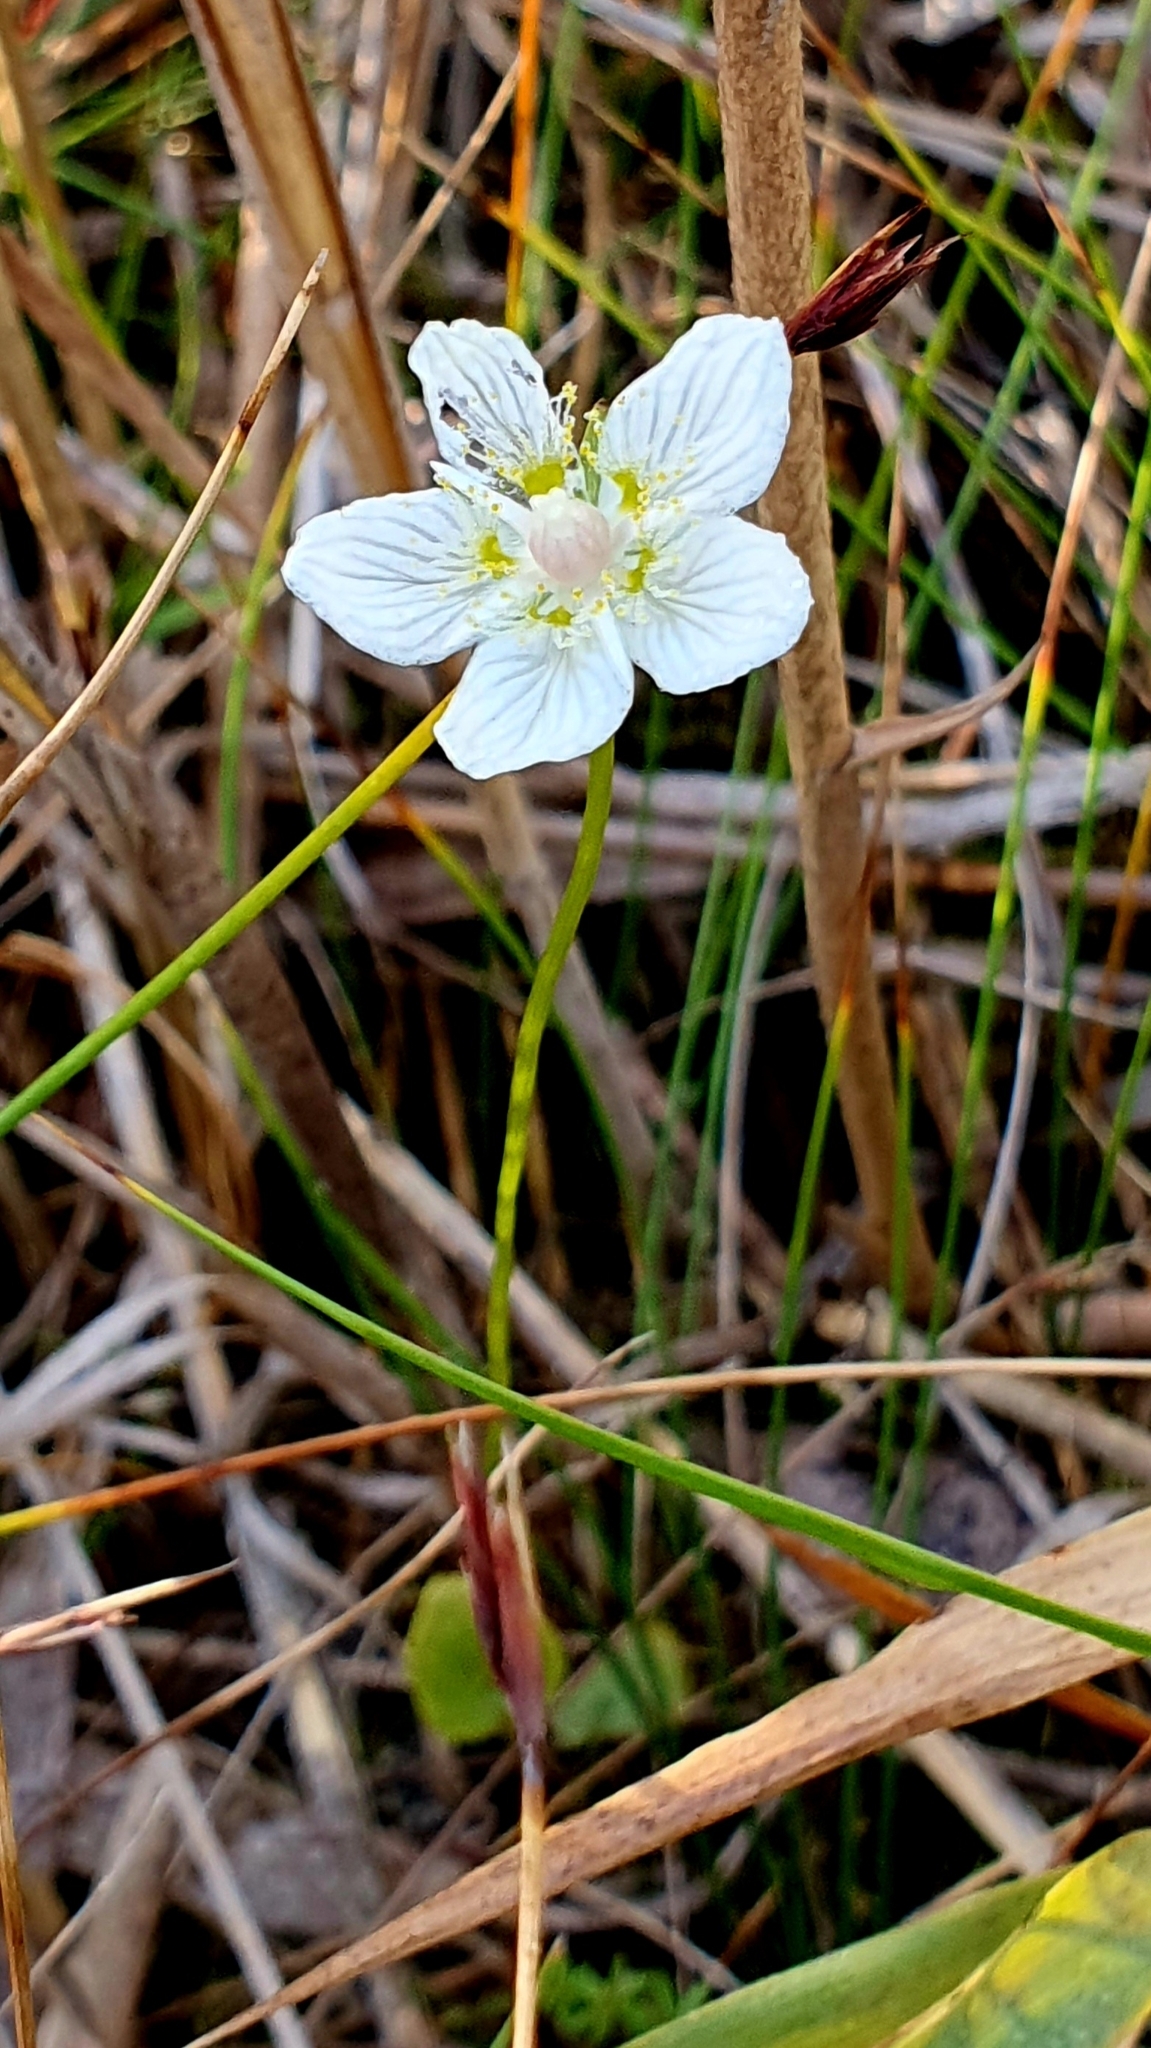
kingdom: Plantae
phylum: Tracheophyta
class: Magnoliopsida
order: Celastrales
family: Parnassiaceae
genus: Parnassia
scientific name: Parnassia palustris
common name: Grass-of-parnassus
